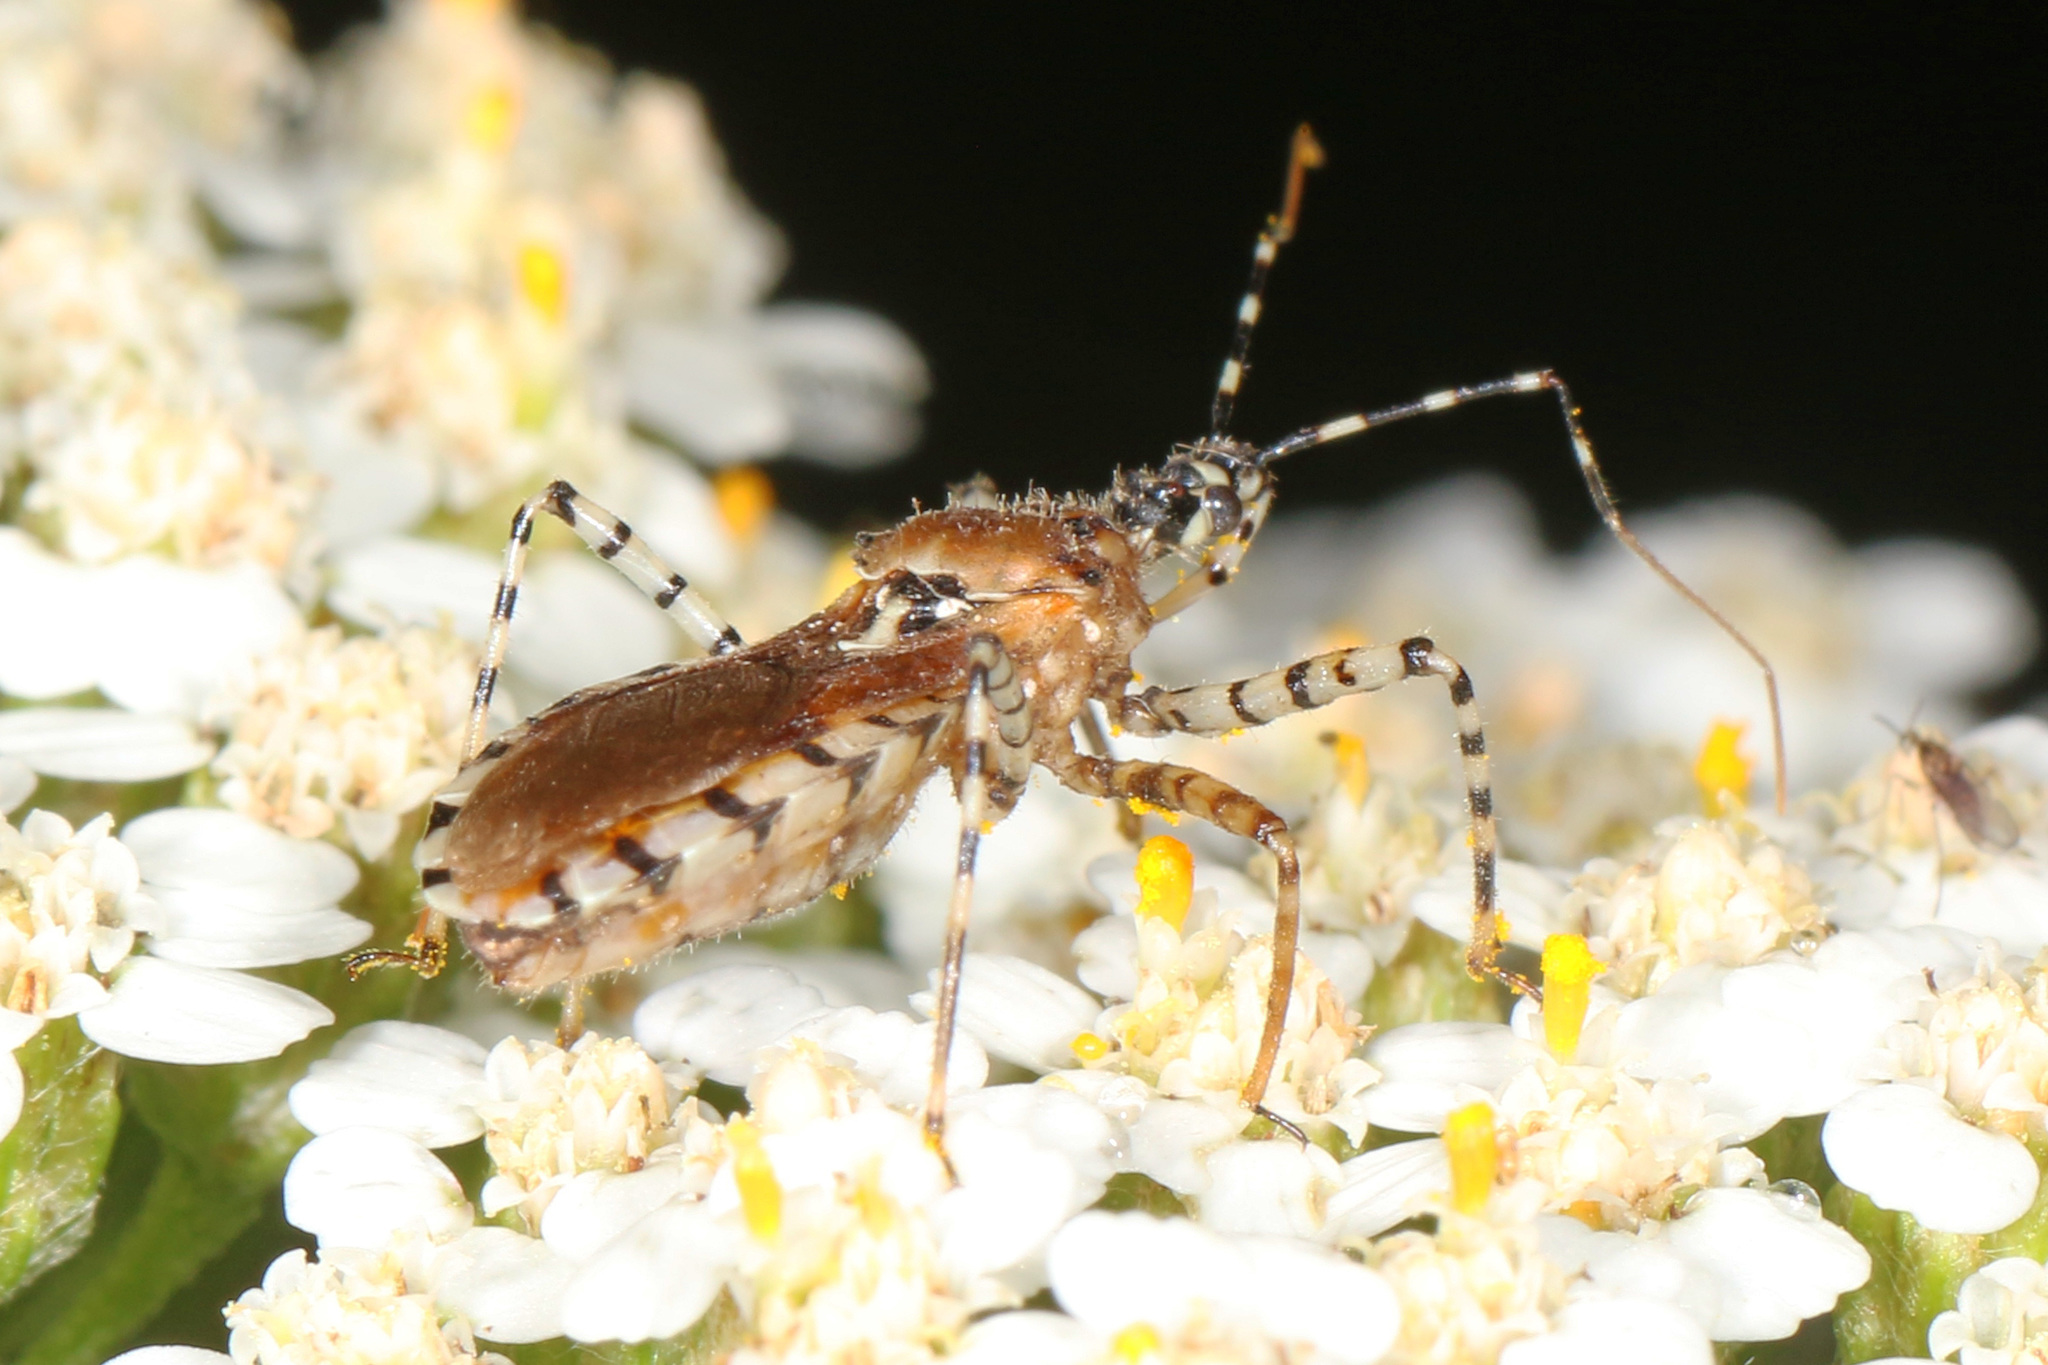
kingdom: Animalia
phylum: Arthropoda
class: Insecta
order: Hemiptera
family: Reduviidae
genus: Pselliopus
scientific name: Pselliopus cinctus
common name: Ringed assassin bug
